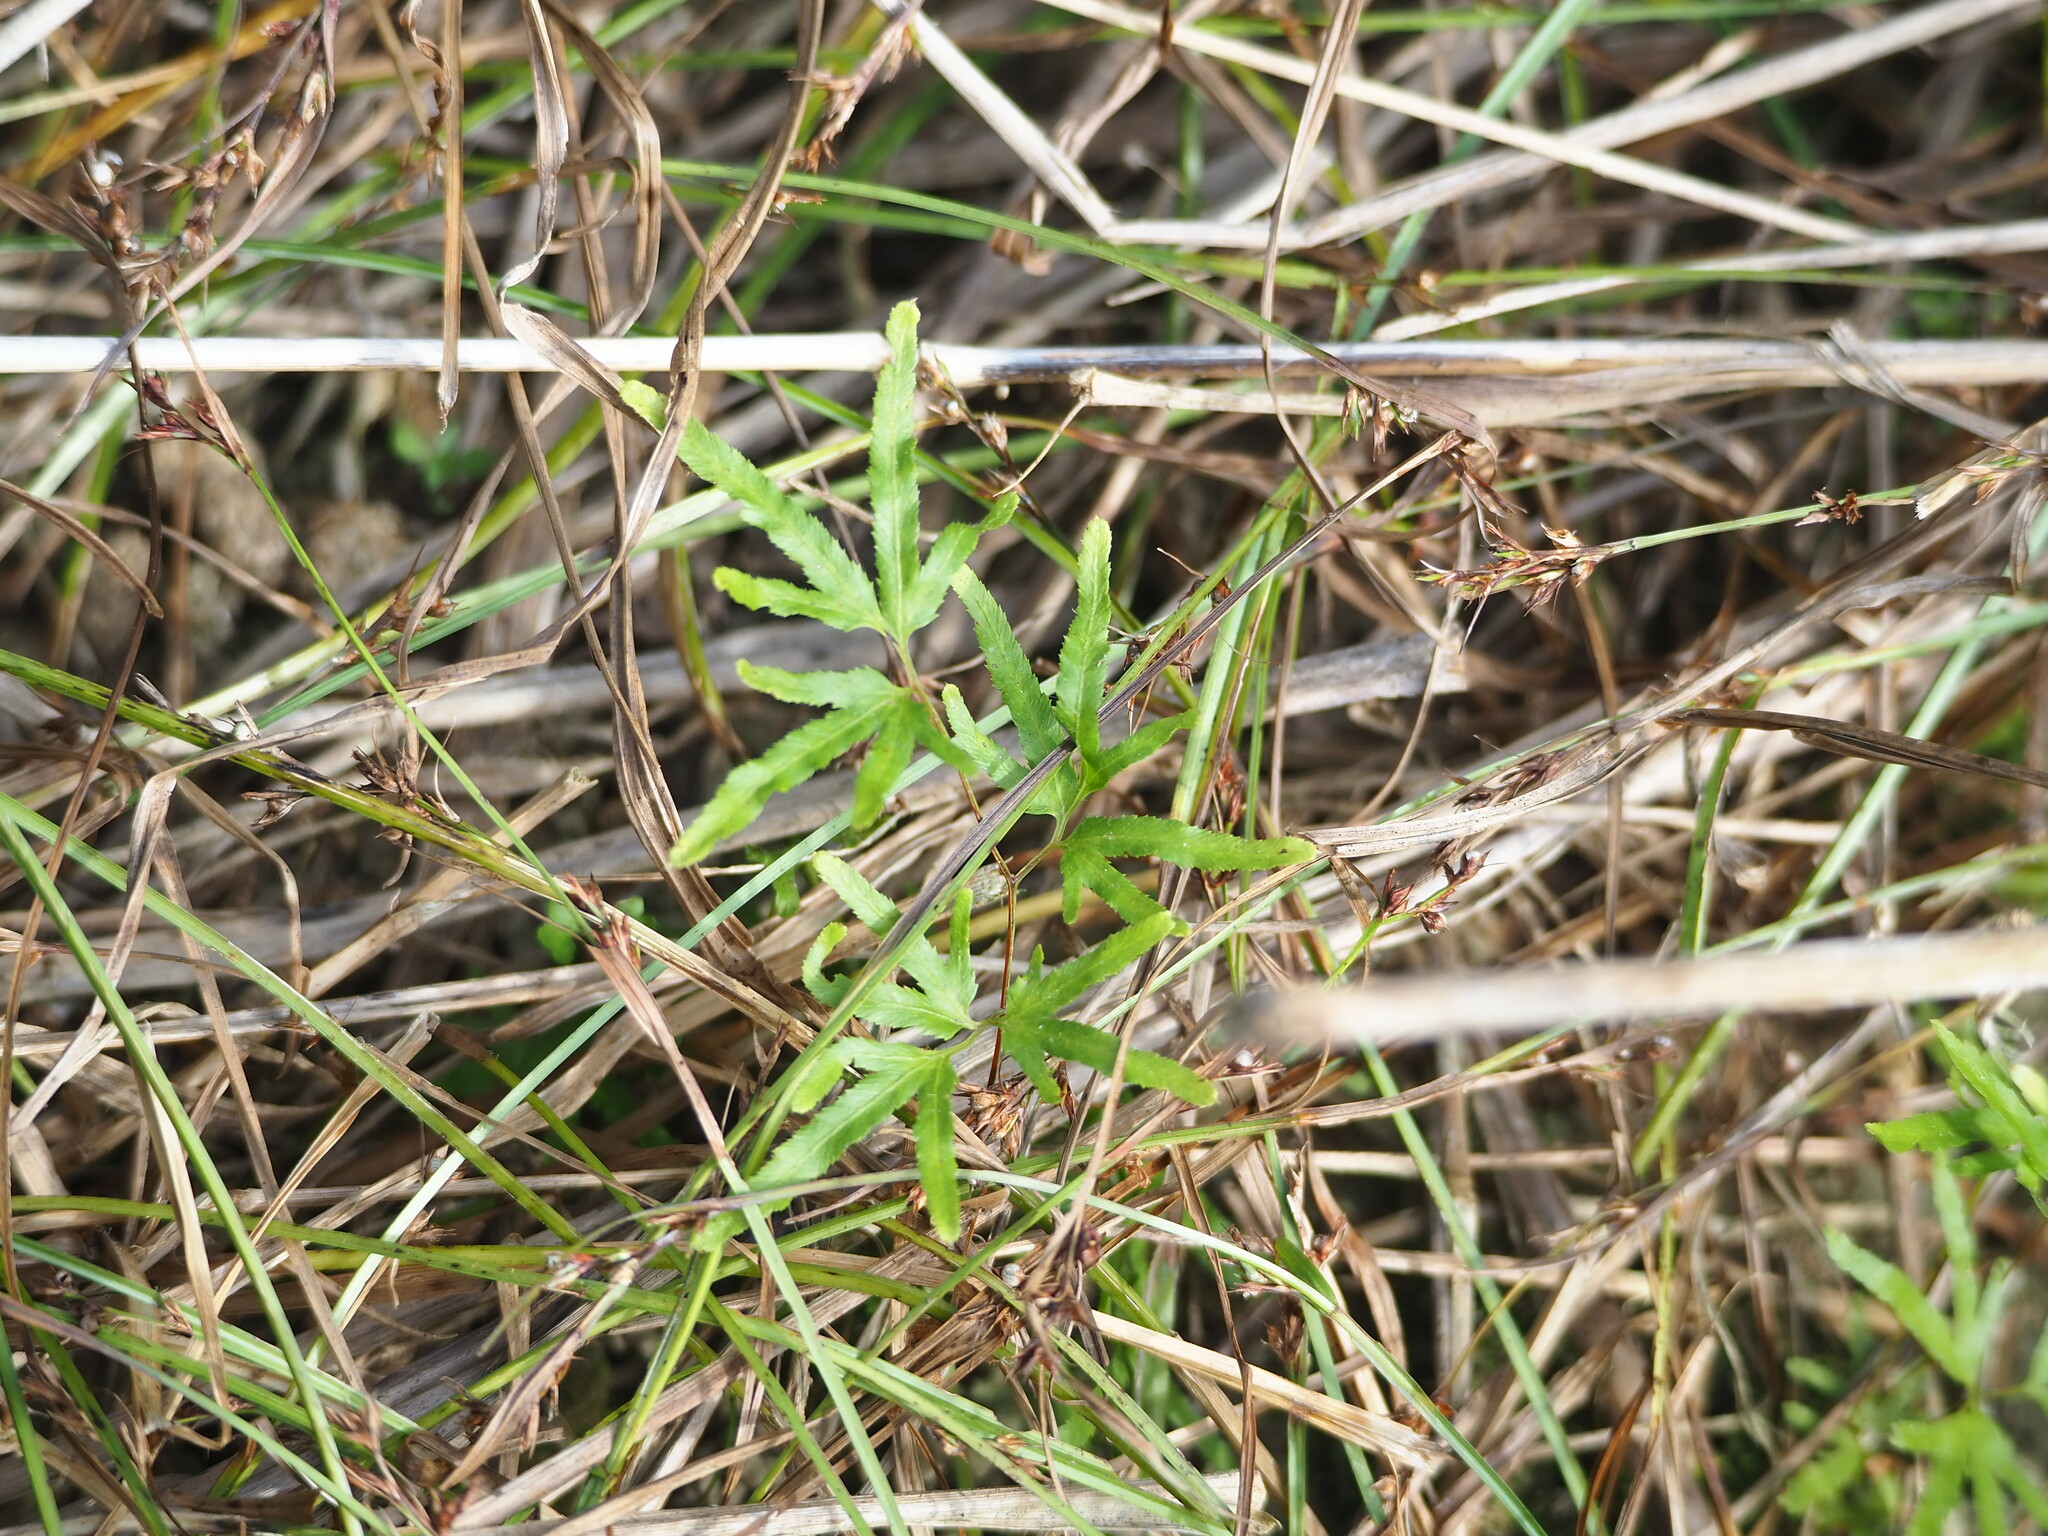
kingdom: Plantae
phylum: Tracheophyta
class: Polypodiopsida
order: Schizaeales
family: Lygodiaceae
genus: Lygodium
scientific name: Lygodium japonicum
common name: Japanese climbing fern
